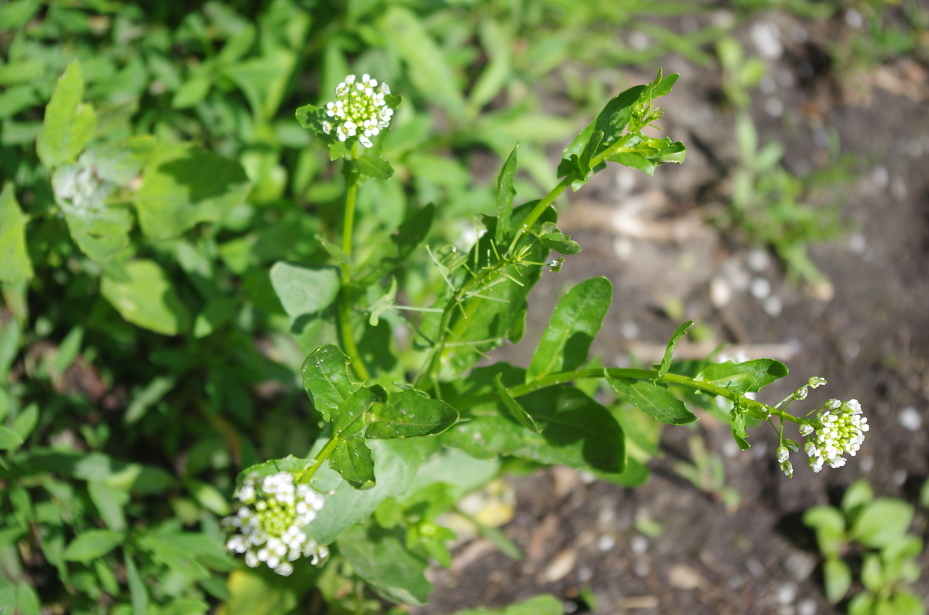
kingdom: Plantae
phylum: Tracheophyta
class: Magnoliopsida
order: Brassicales
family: Brassicaceae
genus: Thlaspi
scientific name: Thlaspi arvense
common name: Field pennycress
